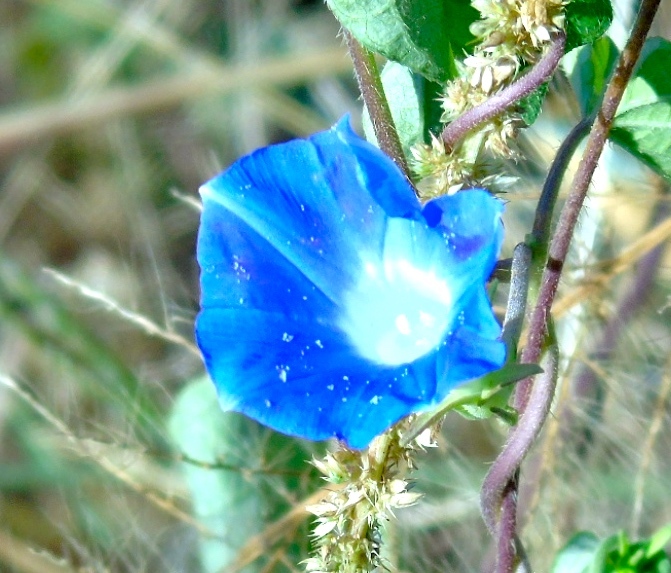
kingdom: Plantae
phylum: Tracheophyta
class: Magnoliopsida
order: Solanales
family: Convolvulaceae
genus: Ipomoea
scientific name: Ipomoea nil
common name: Japanese morning-glory
